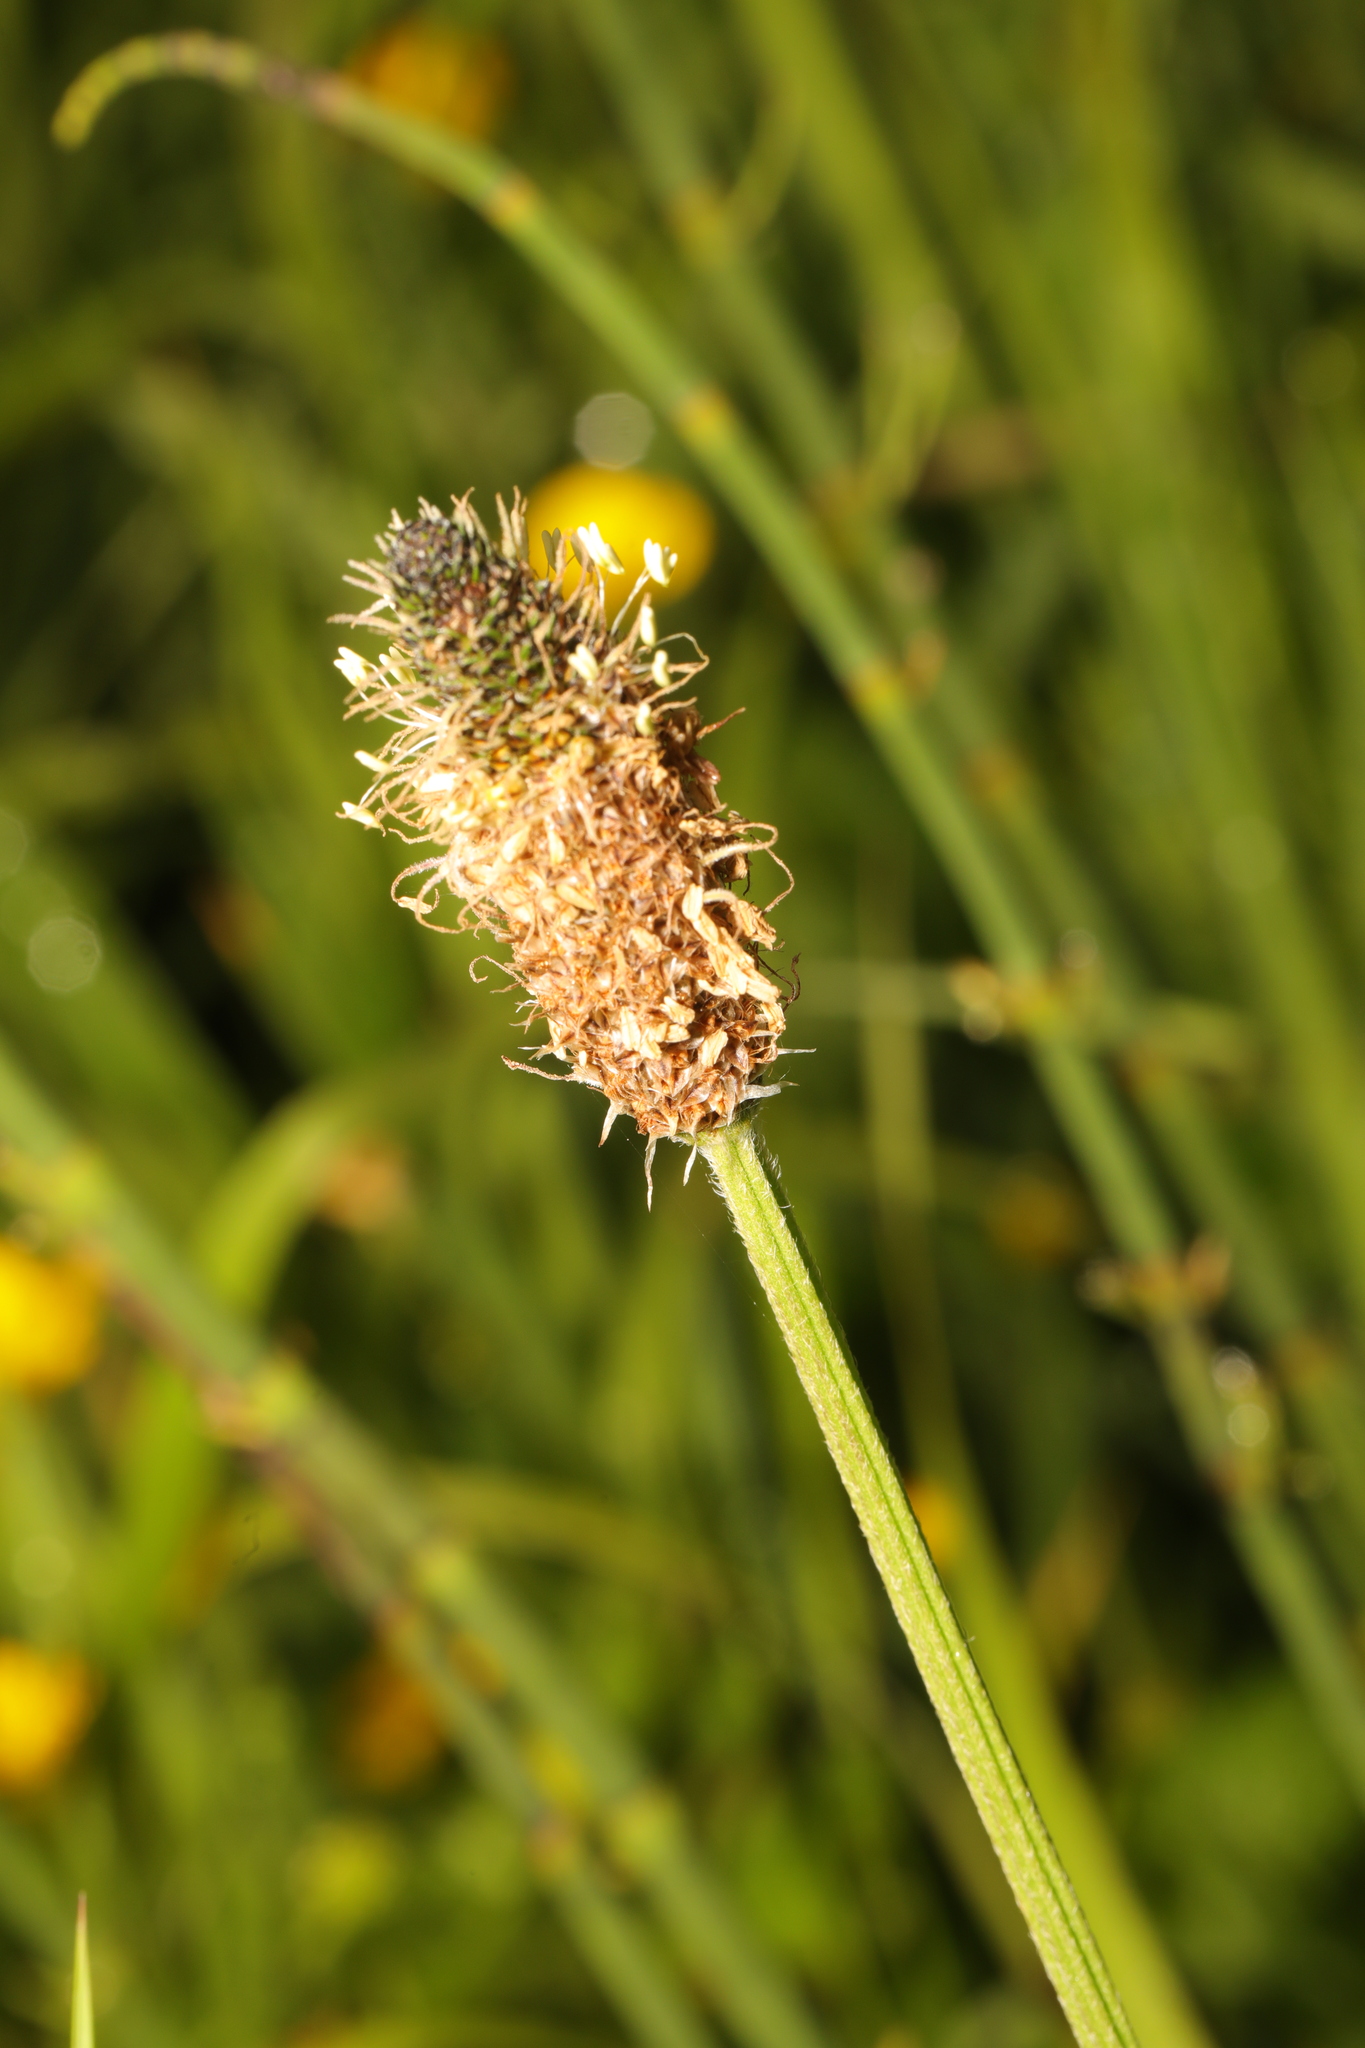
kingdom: Plantae
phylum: Tracheophyta
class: Magnoliopsida
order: Lamiales
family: Plantaginaceae
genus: Plantago
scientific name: Plantago lanceolata
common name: Ribwort plantain
